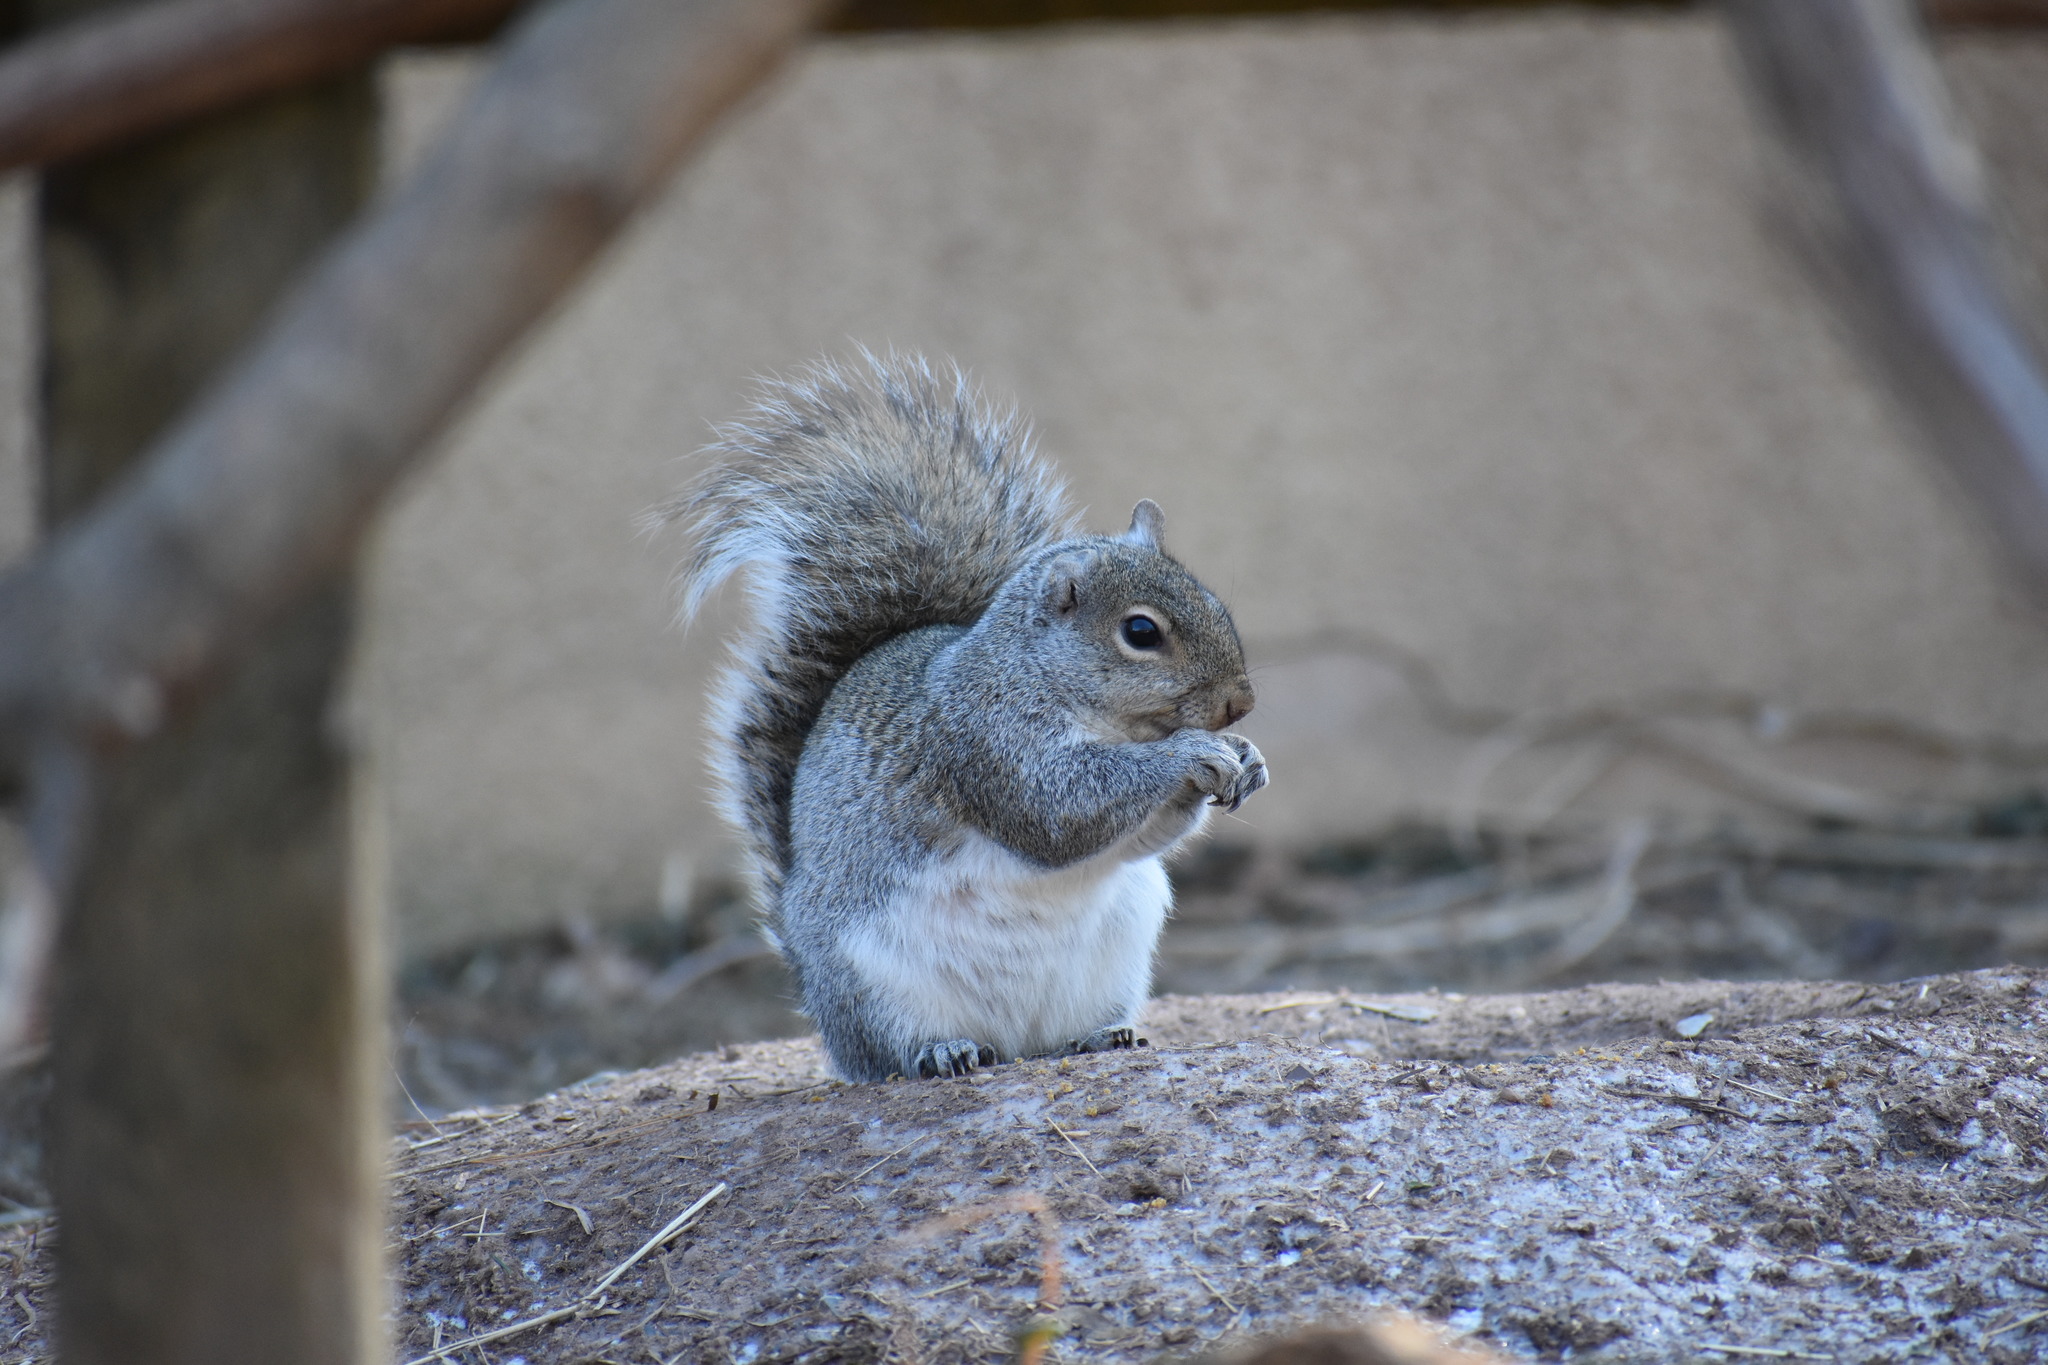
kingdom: Animalia
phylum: Chordata
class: Mammalia
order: Rodentia
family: Sciuridae
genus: Sciurus
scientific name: Sciurus carolinensis
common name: Eastern gray squirrel
